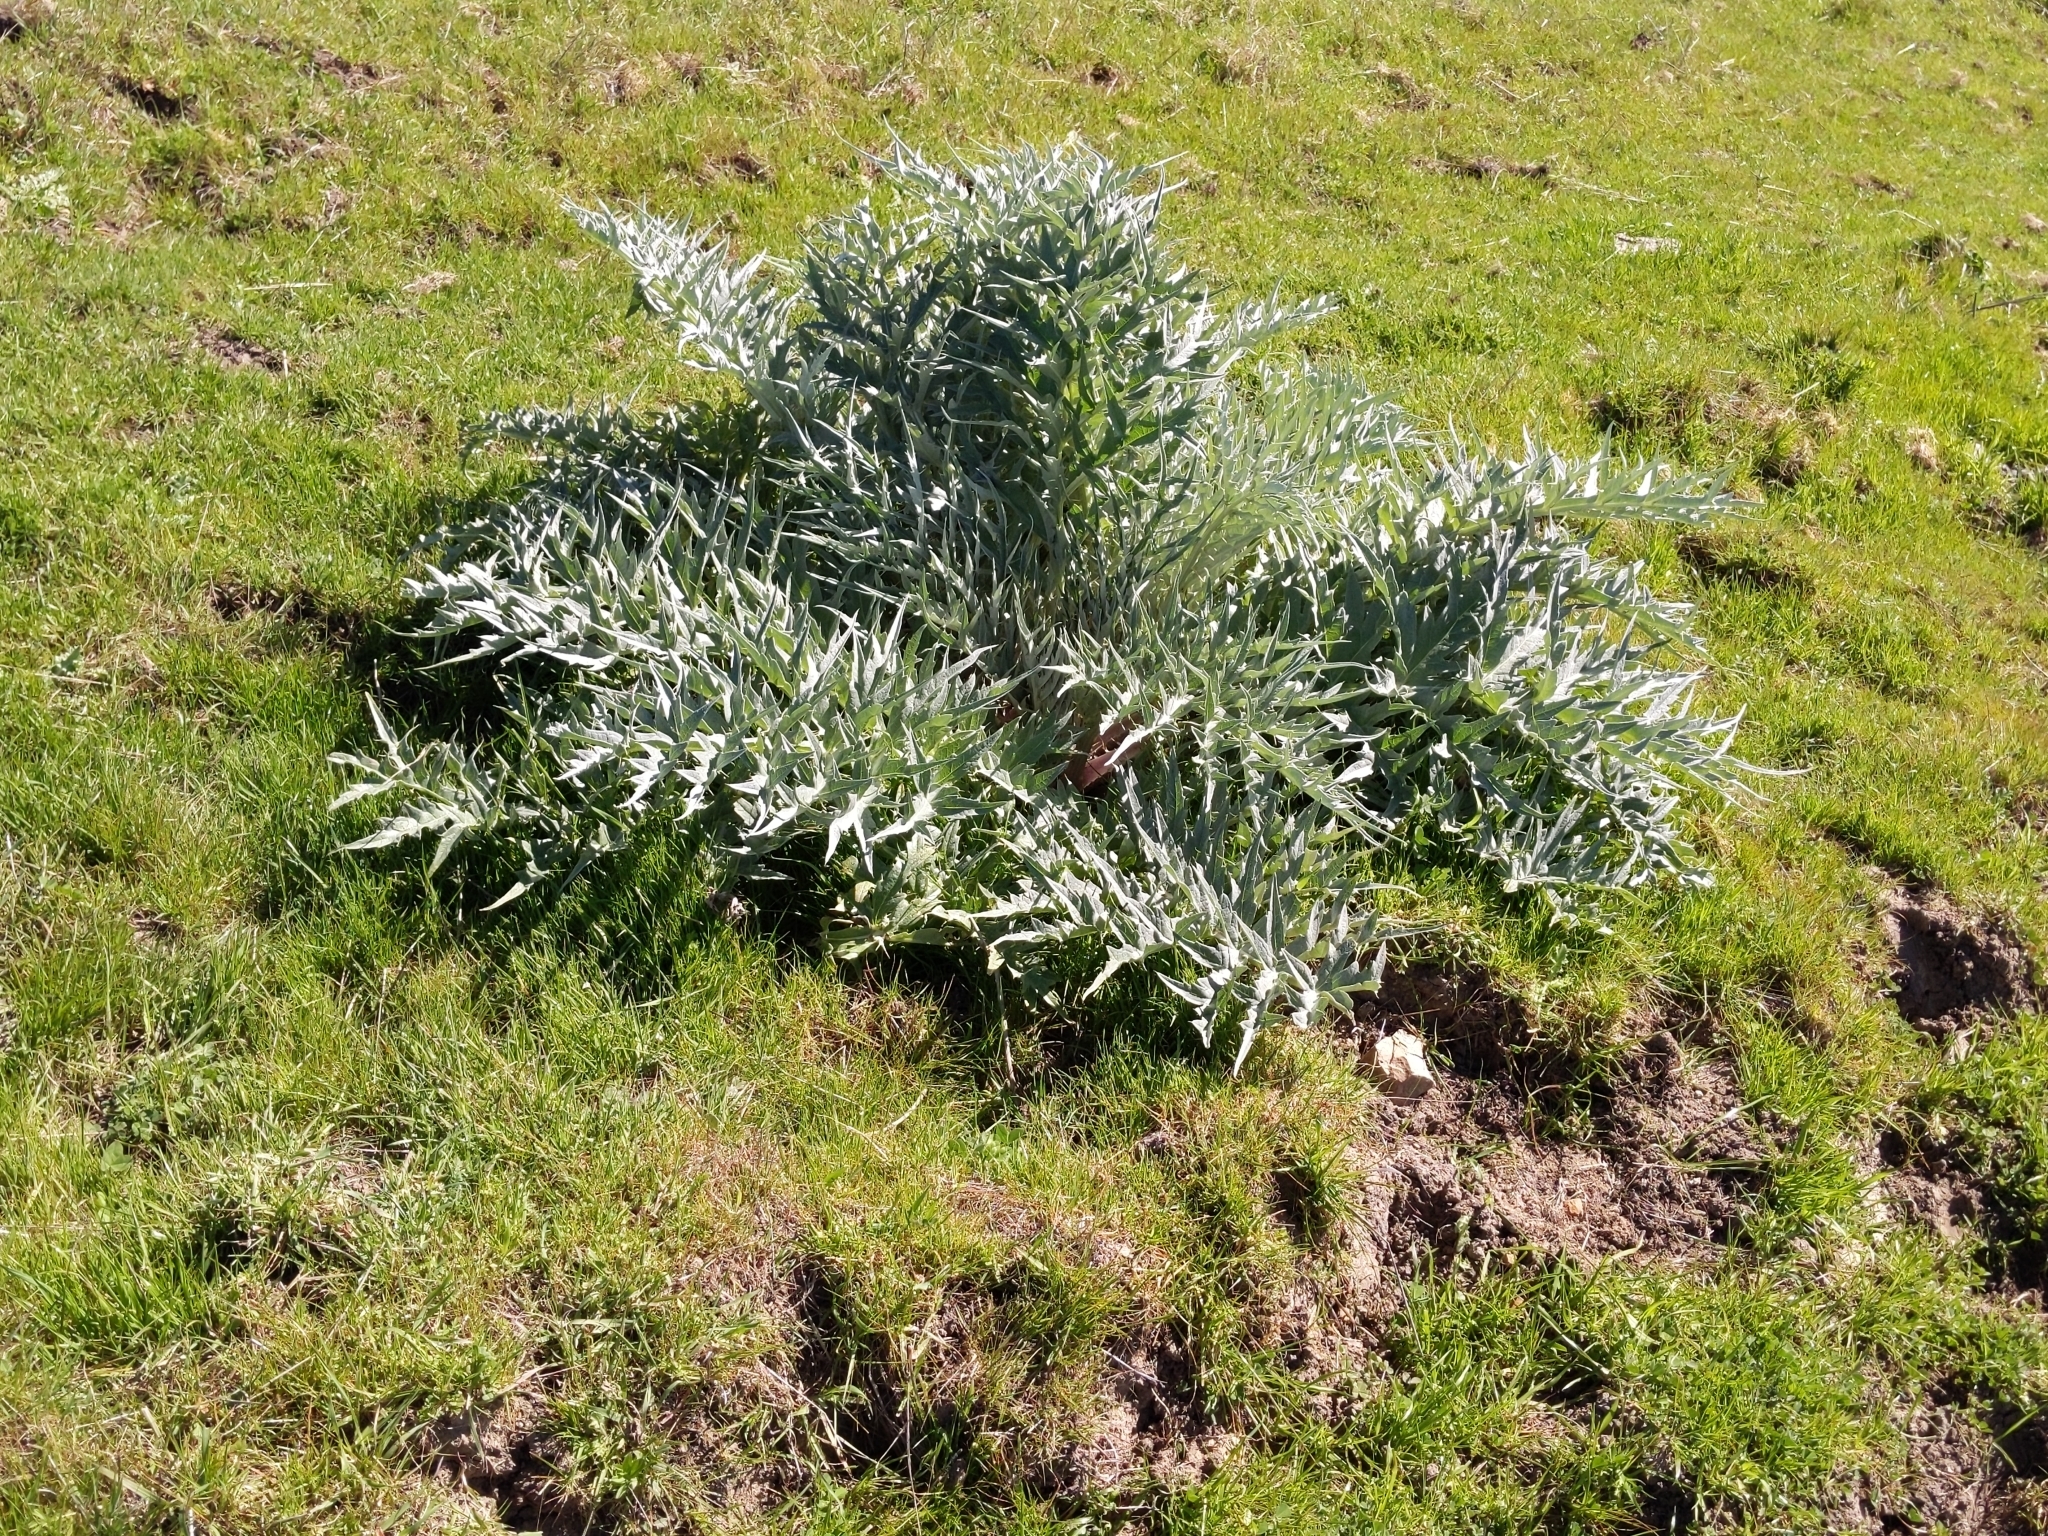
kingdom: Plantae
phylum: Tracheophyta
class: Magnoliopsida
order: Asterales
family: Asteraceae
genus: Cynara
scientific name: Cynara cardunculus
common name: Globe artichoke
